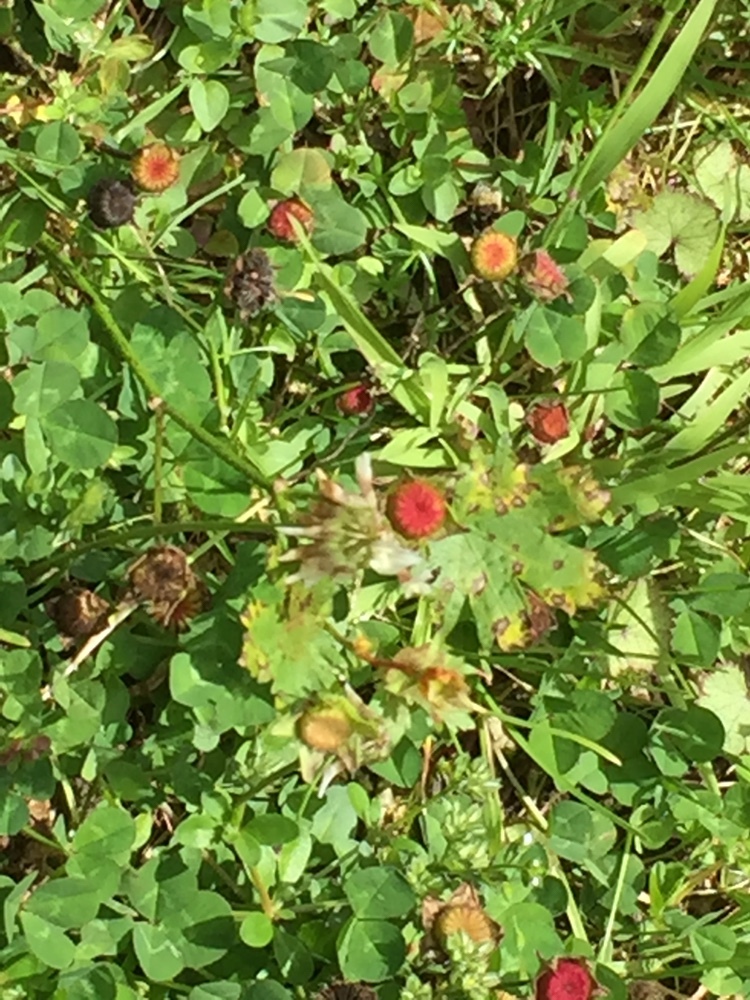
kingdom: Fungi
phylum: Chytridiomycota
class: Chytridiomycetes
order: Chytridiales
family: Synchytriaceae
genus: Synchytrium
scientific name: Synchytrium australe
